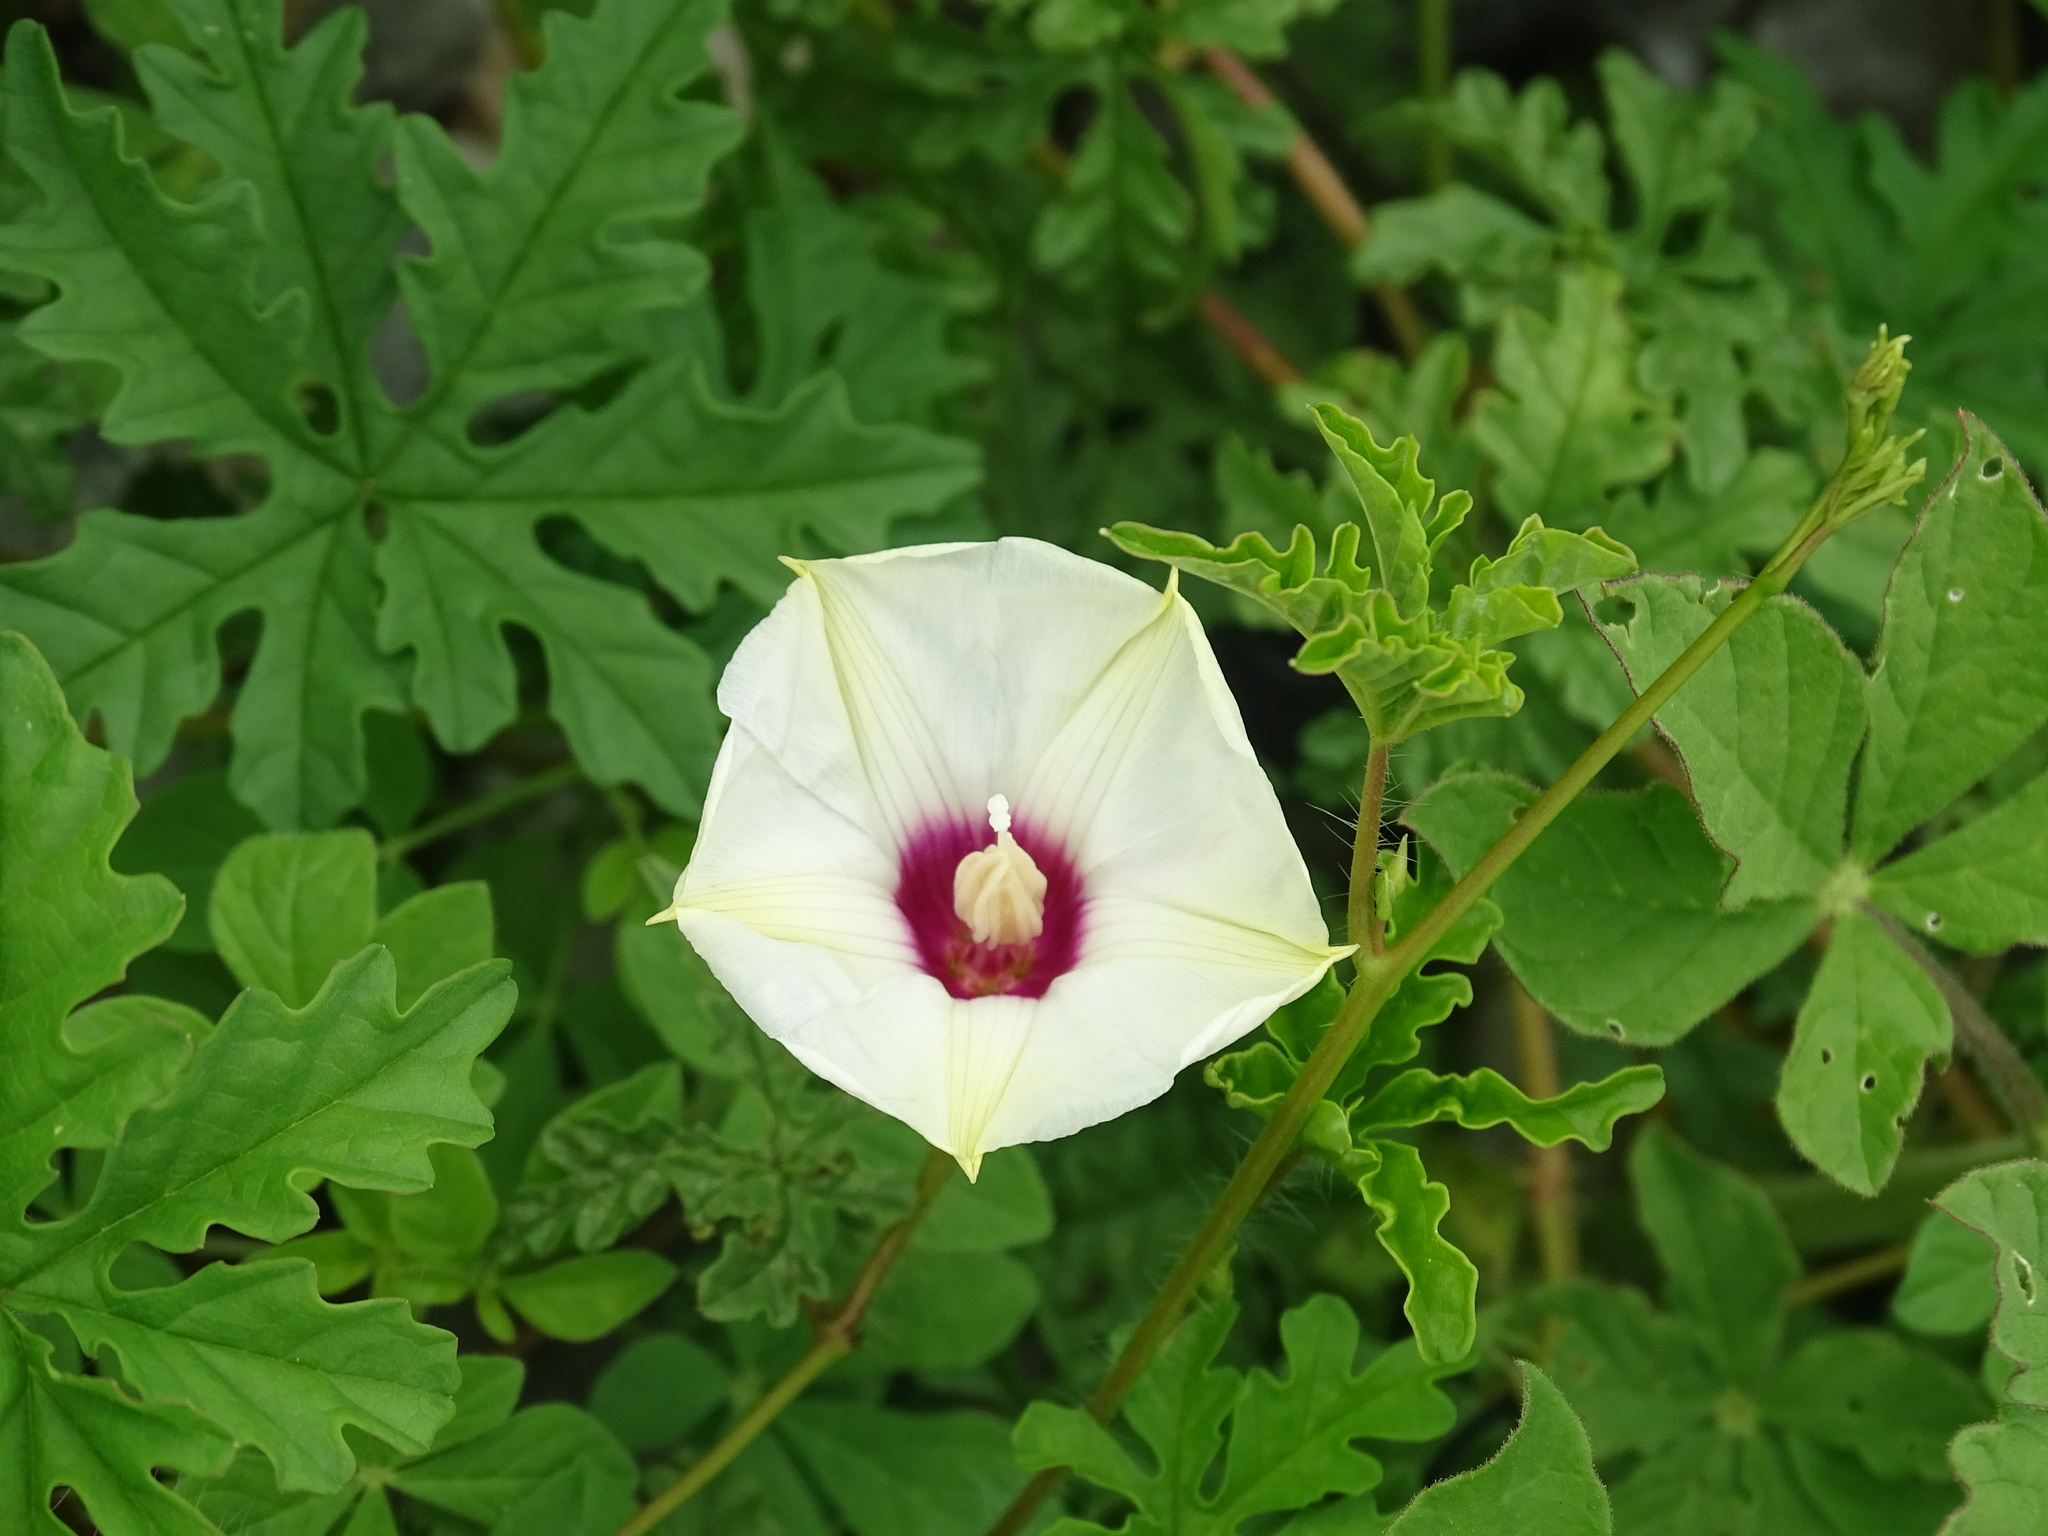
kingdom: Plantae
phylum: Tracheophyta
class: Magnoliopsida
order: Solanales
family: Convolvulaceae
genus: Distimake
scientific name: Distimake dissectus
